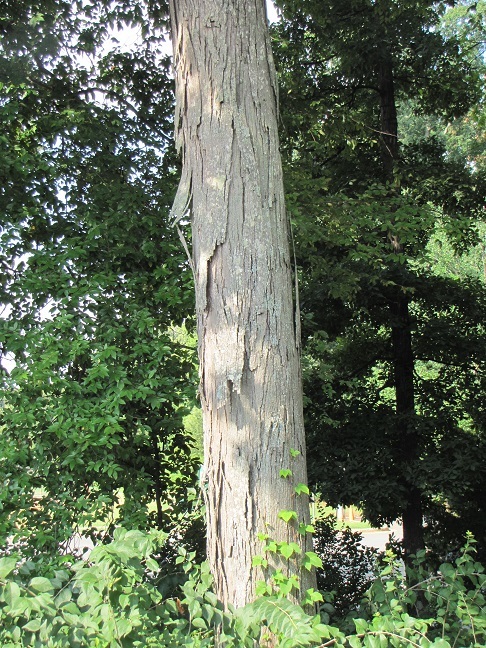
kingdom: Plantae
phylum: Tracheophyta
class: Magnoliopsida
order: Fagales
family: Juglandaceae
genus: Carya
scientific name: Carya carolinae-septentrionalis
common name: Carolina hickory
